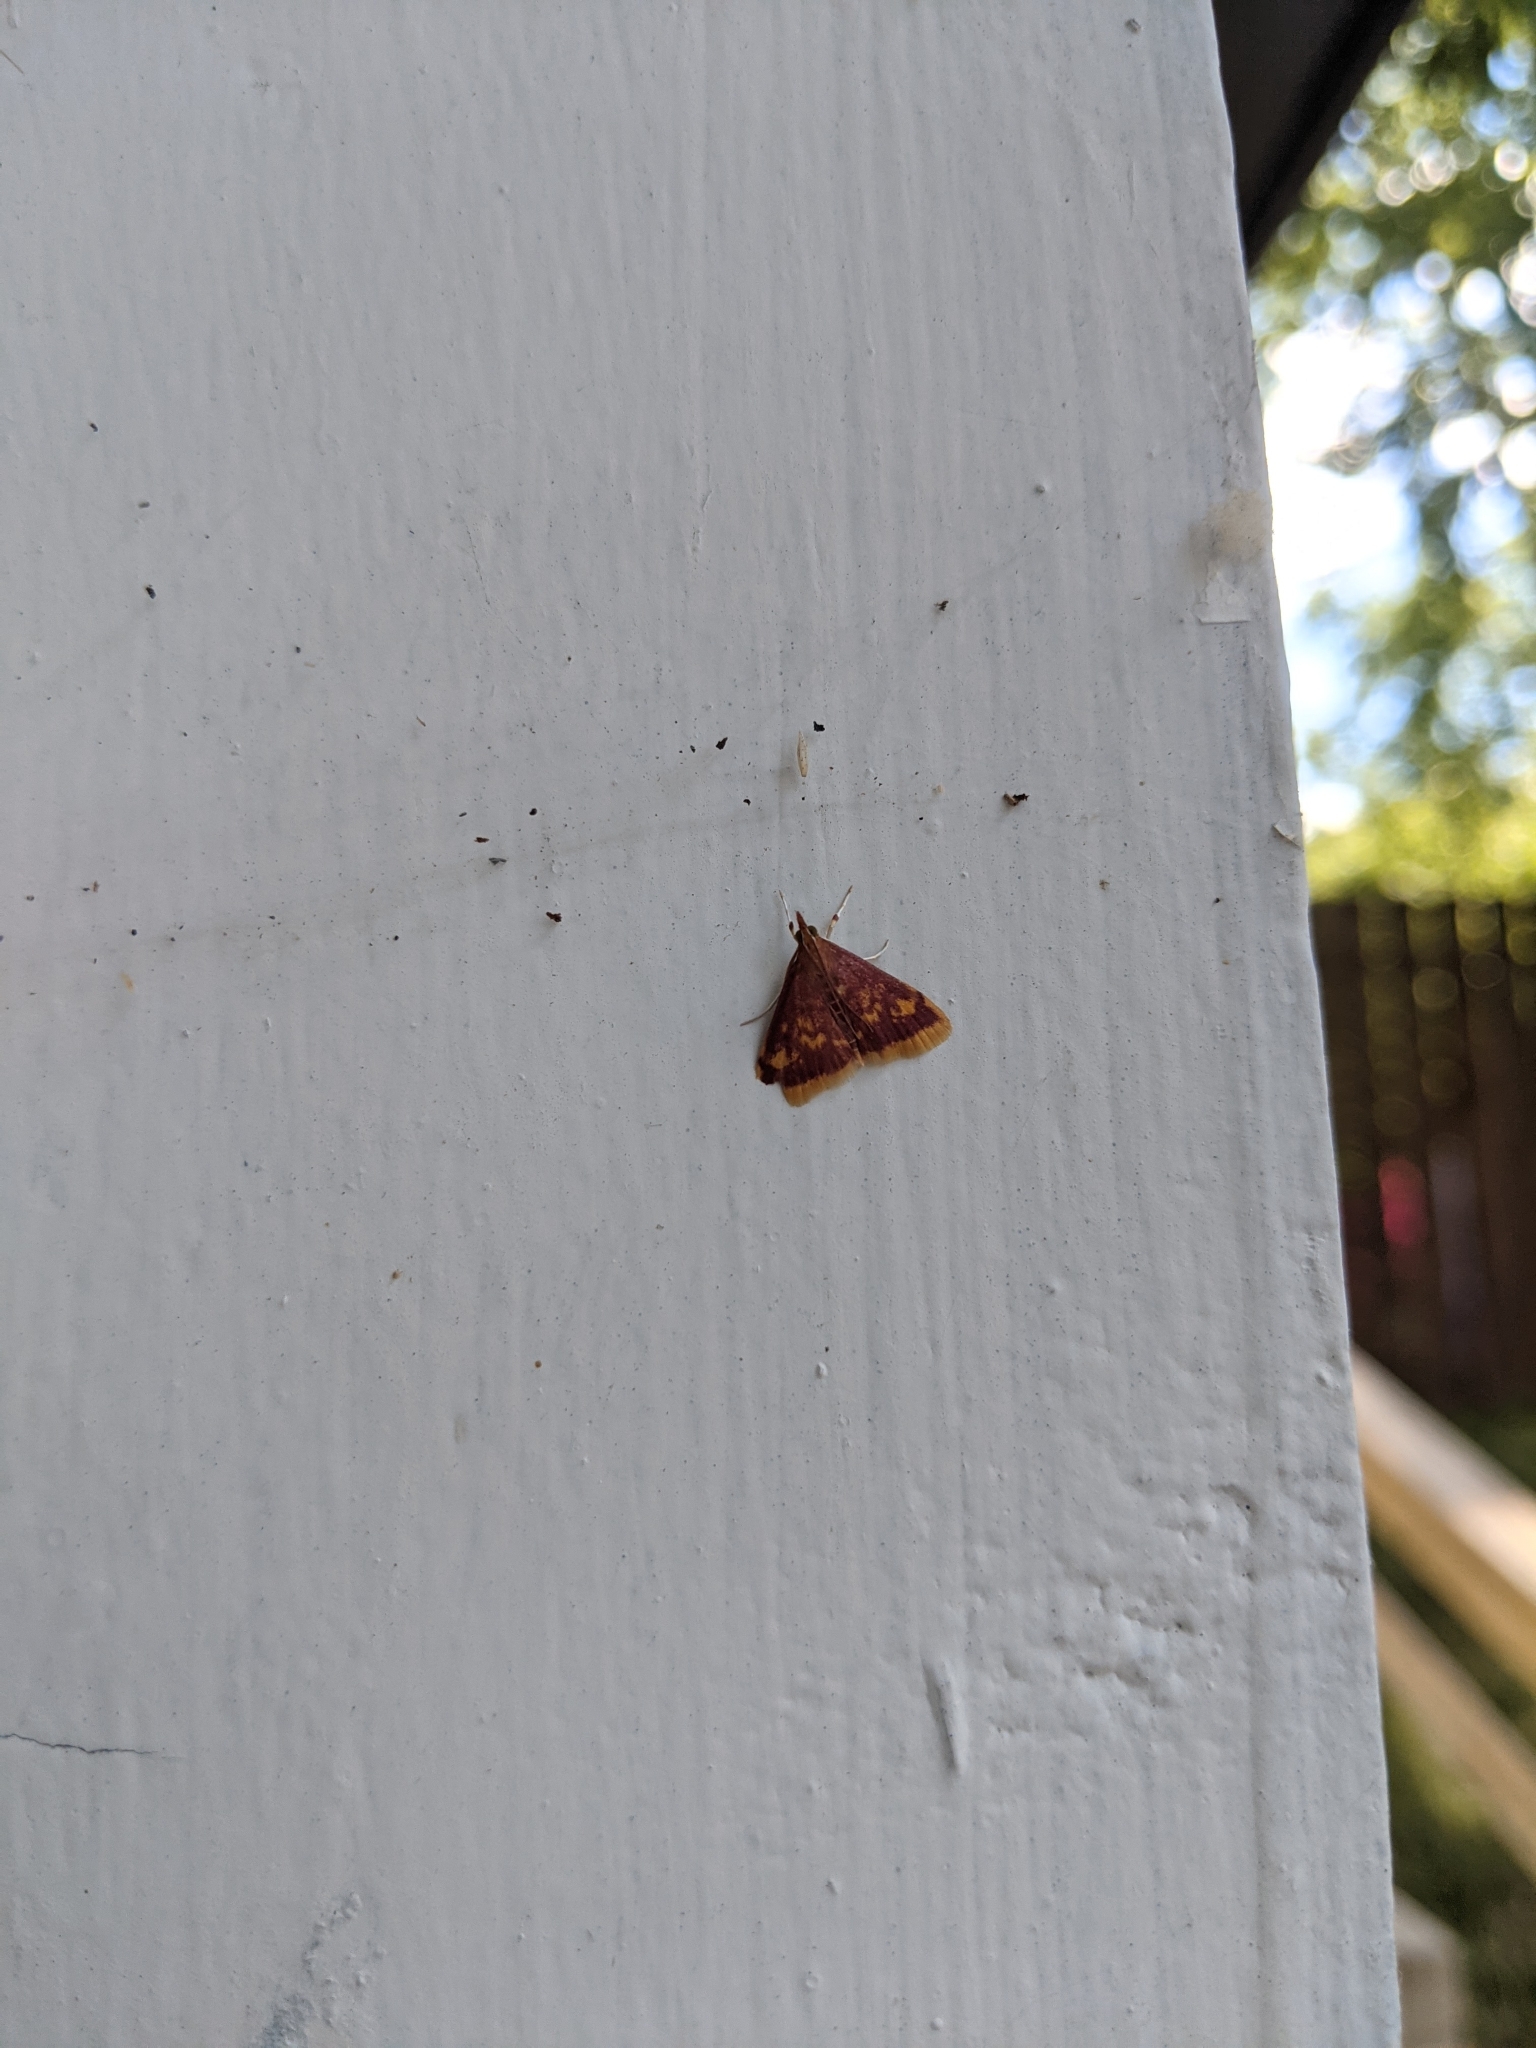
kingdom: Animalia
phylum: Arthropoda
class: Insecta
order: Lepidoptera
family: Crambidae
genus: Pyrausta
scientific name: Pyrausta acrionalis
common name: Mint-loving pyrausta moth
